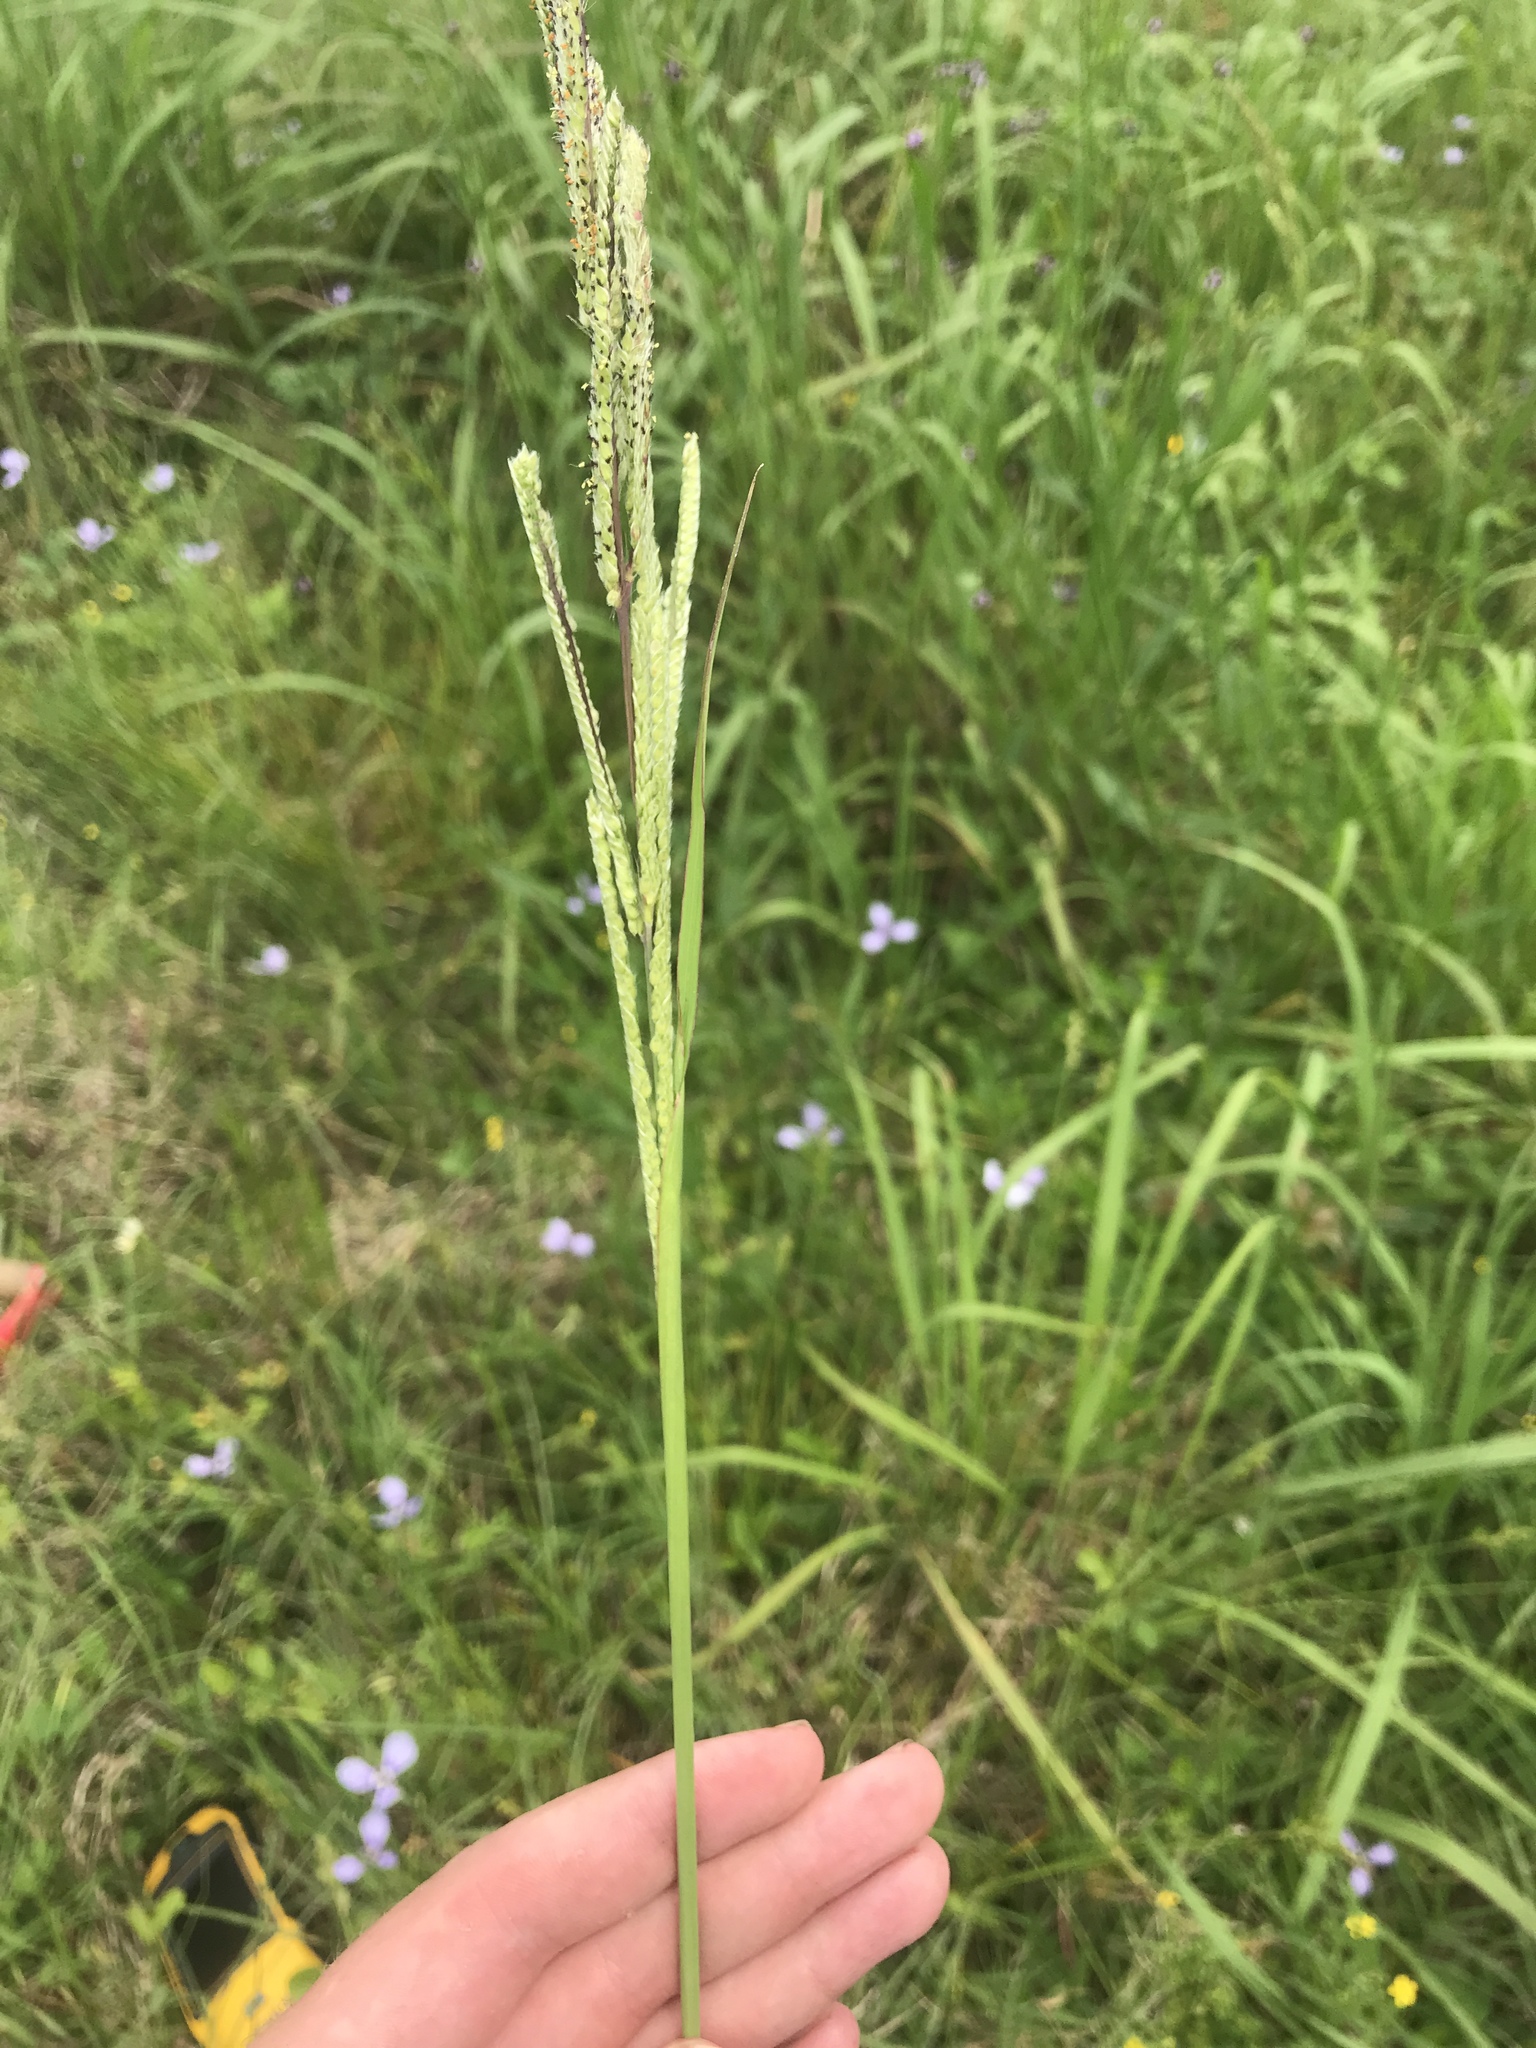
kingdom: Plantae
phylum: Tracheophyta
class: Liliopsida
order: Poales
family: Poaceae
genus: Paspalum
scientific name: Paspalum urvillei
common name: Vasey's grass
